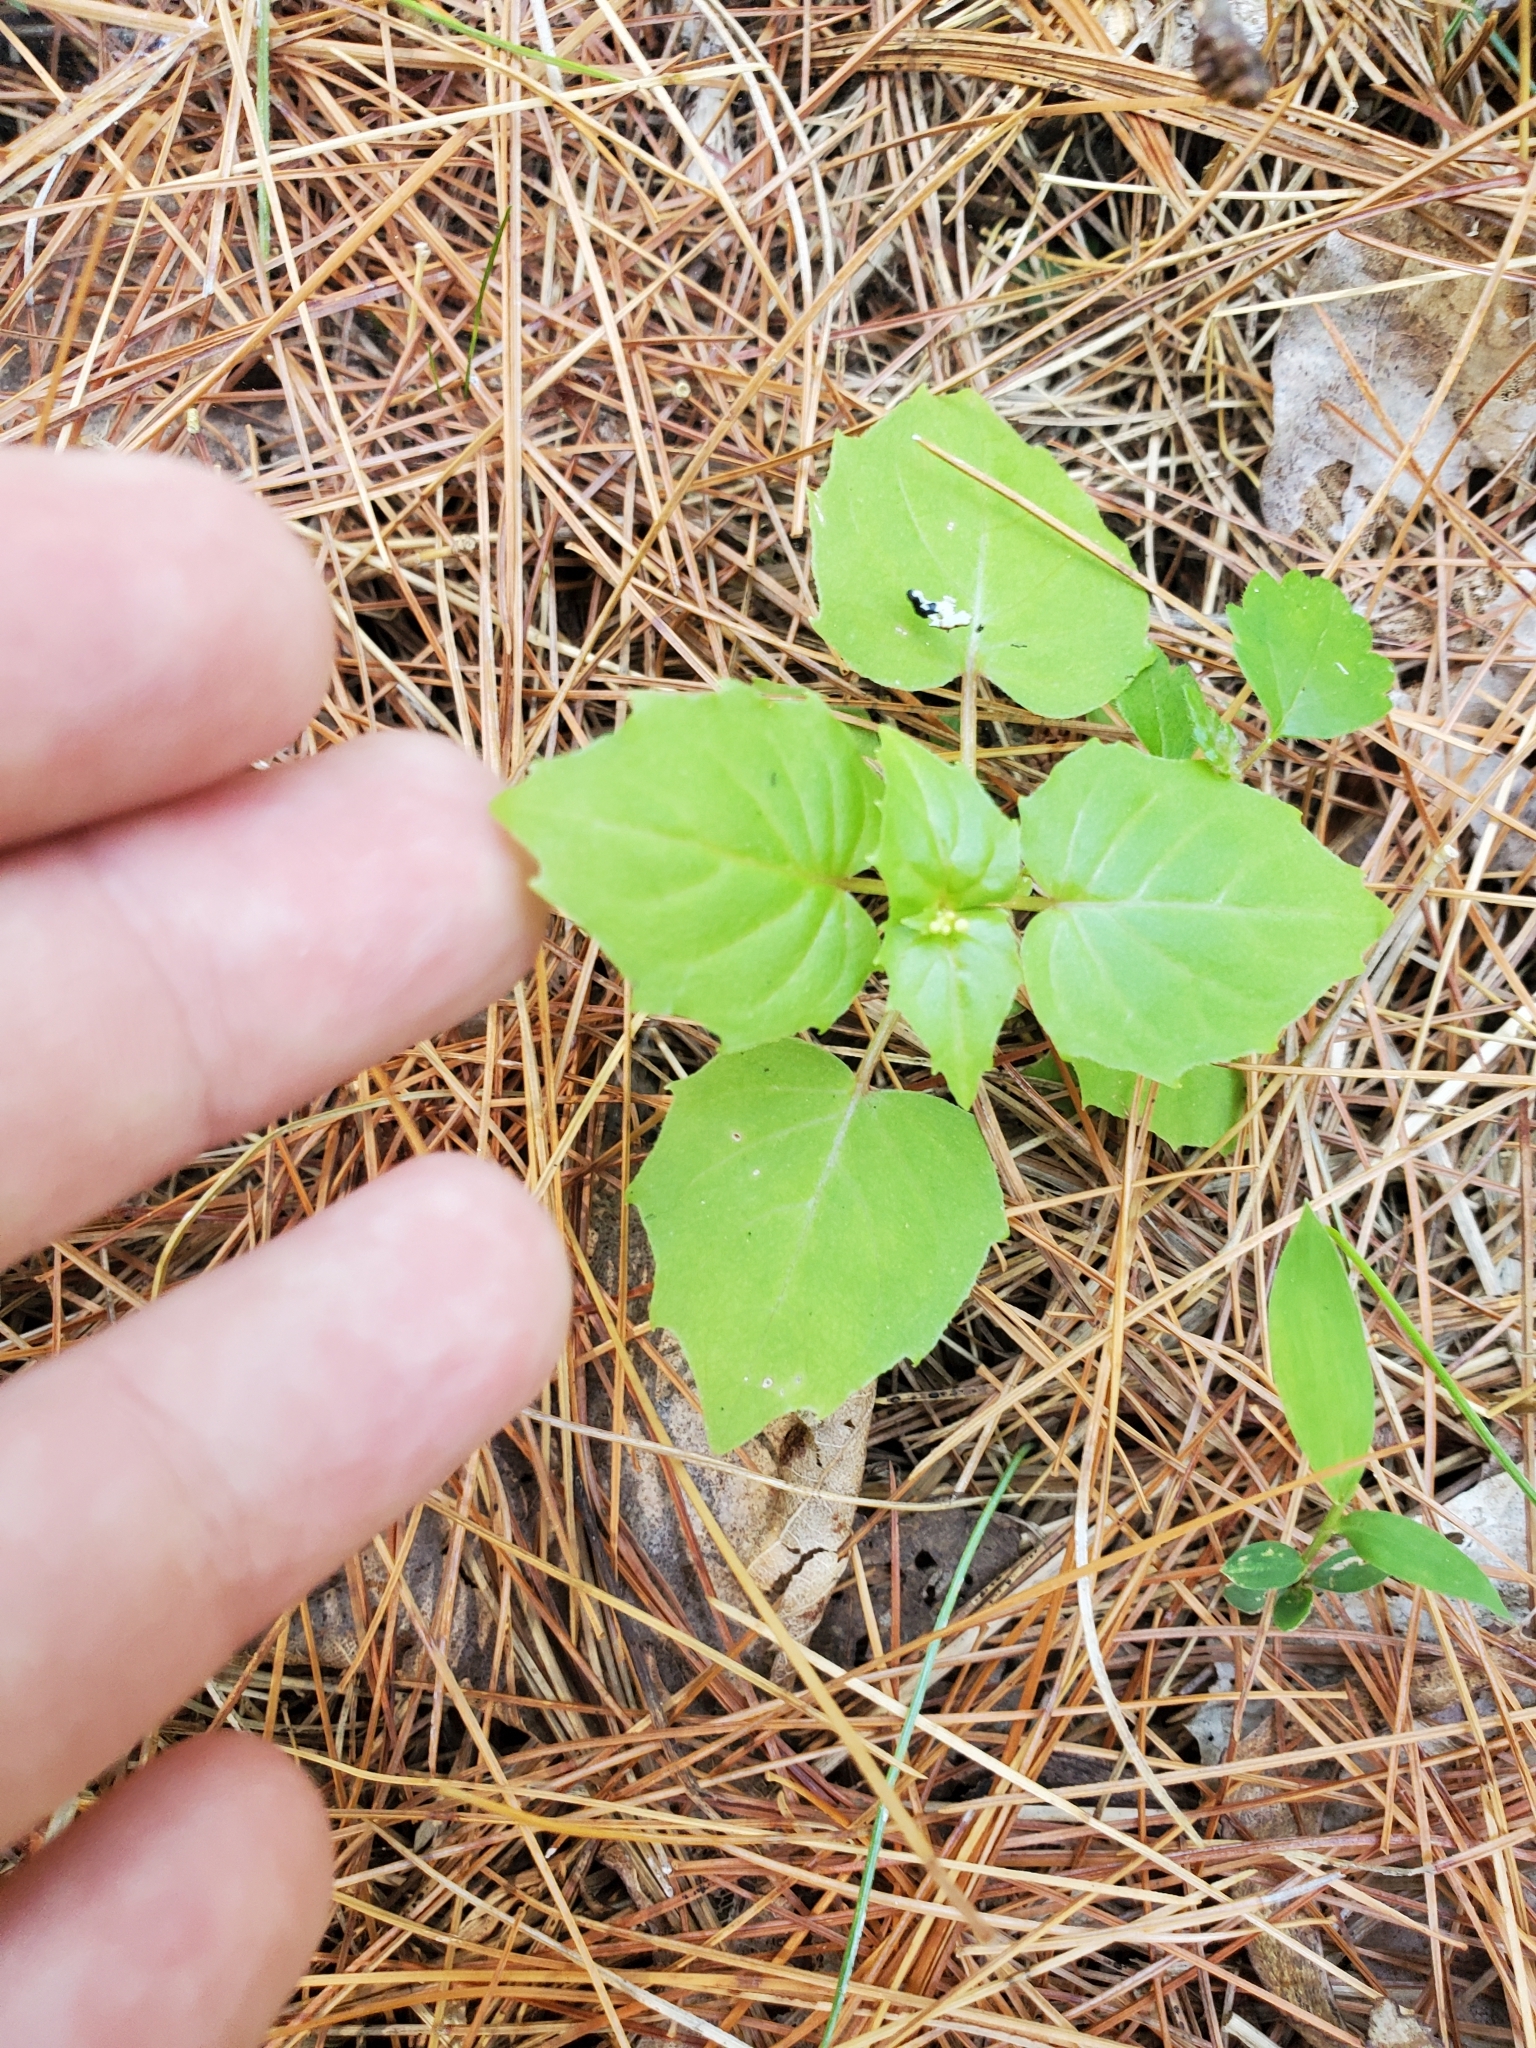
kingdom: Plantae
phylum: Tracheophyta
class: Magnoliopsida
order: Myrtales
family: Onagraceae
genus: Circaea
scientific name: Circaea alpina
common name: Alpine enchanter's-nightshade
